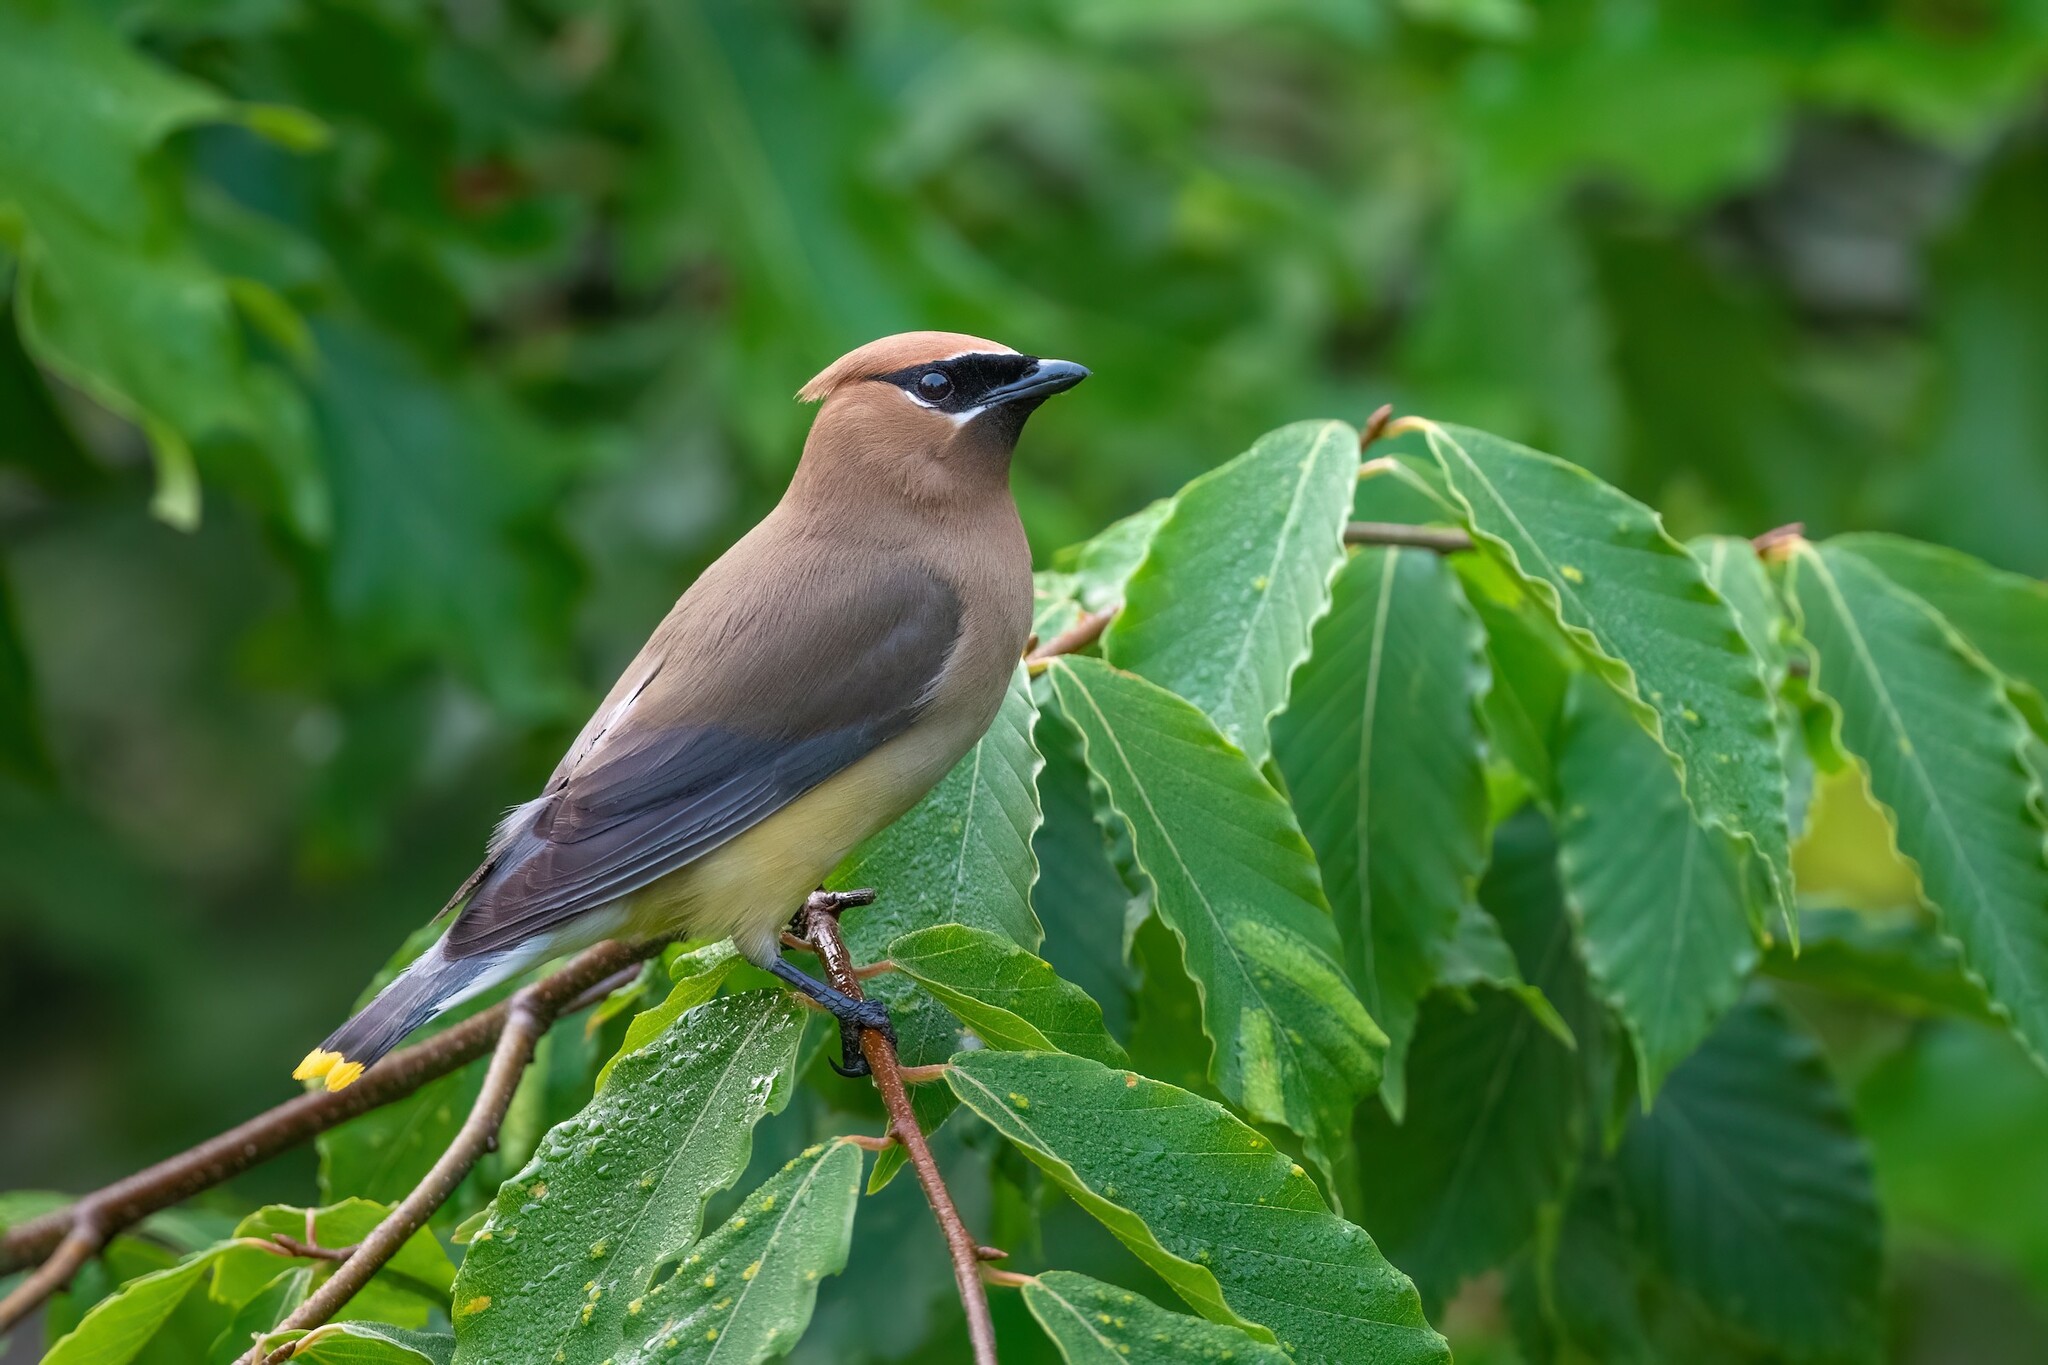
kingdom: Animalia
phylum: Chordata
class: Aves
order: Passeriformes
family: Bombycillidae
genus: Bombycilla
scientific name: Bombycilla cedrorum
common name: Cedar waxwing
